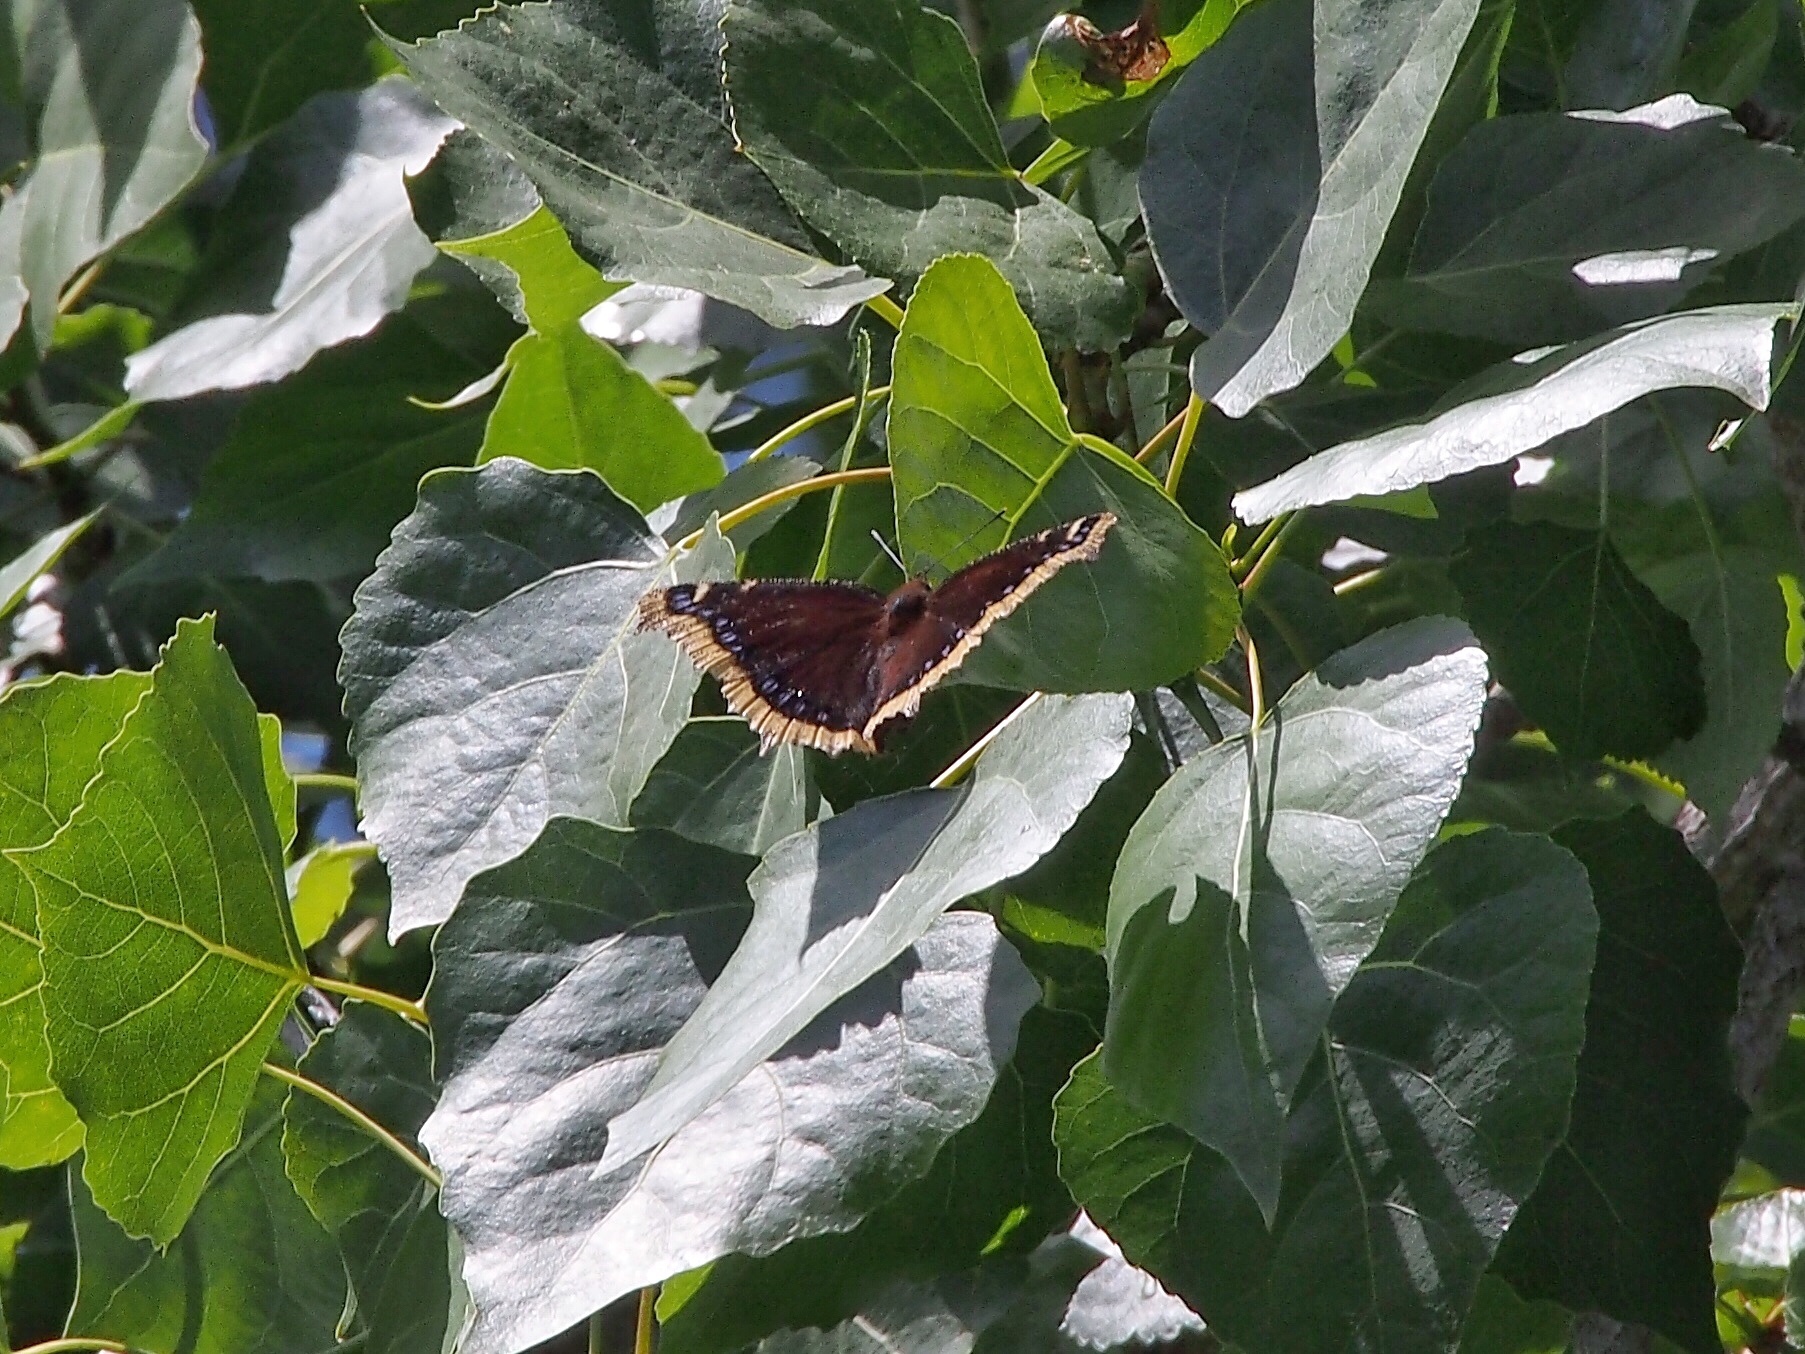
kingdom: Animalia
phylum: Arthropoda
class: Insecta
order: Lepidoptera
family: Nymphalidae
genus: Nymphalis
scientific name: Nymphalis antiopa
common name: Camberwell beauty
